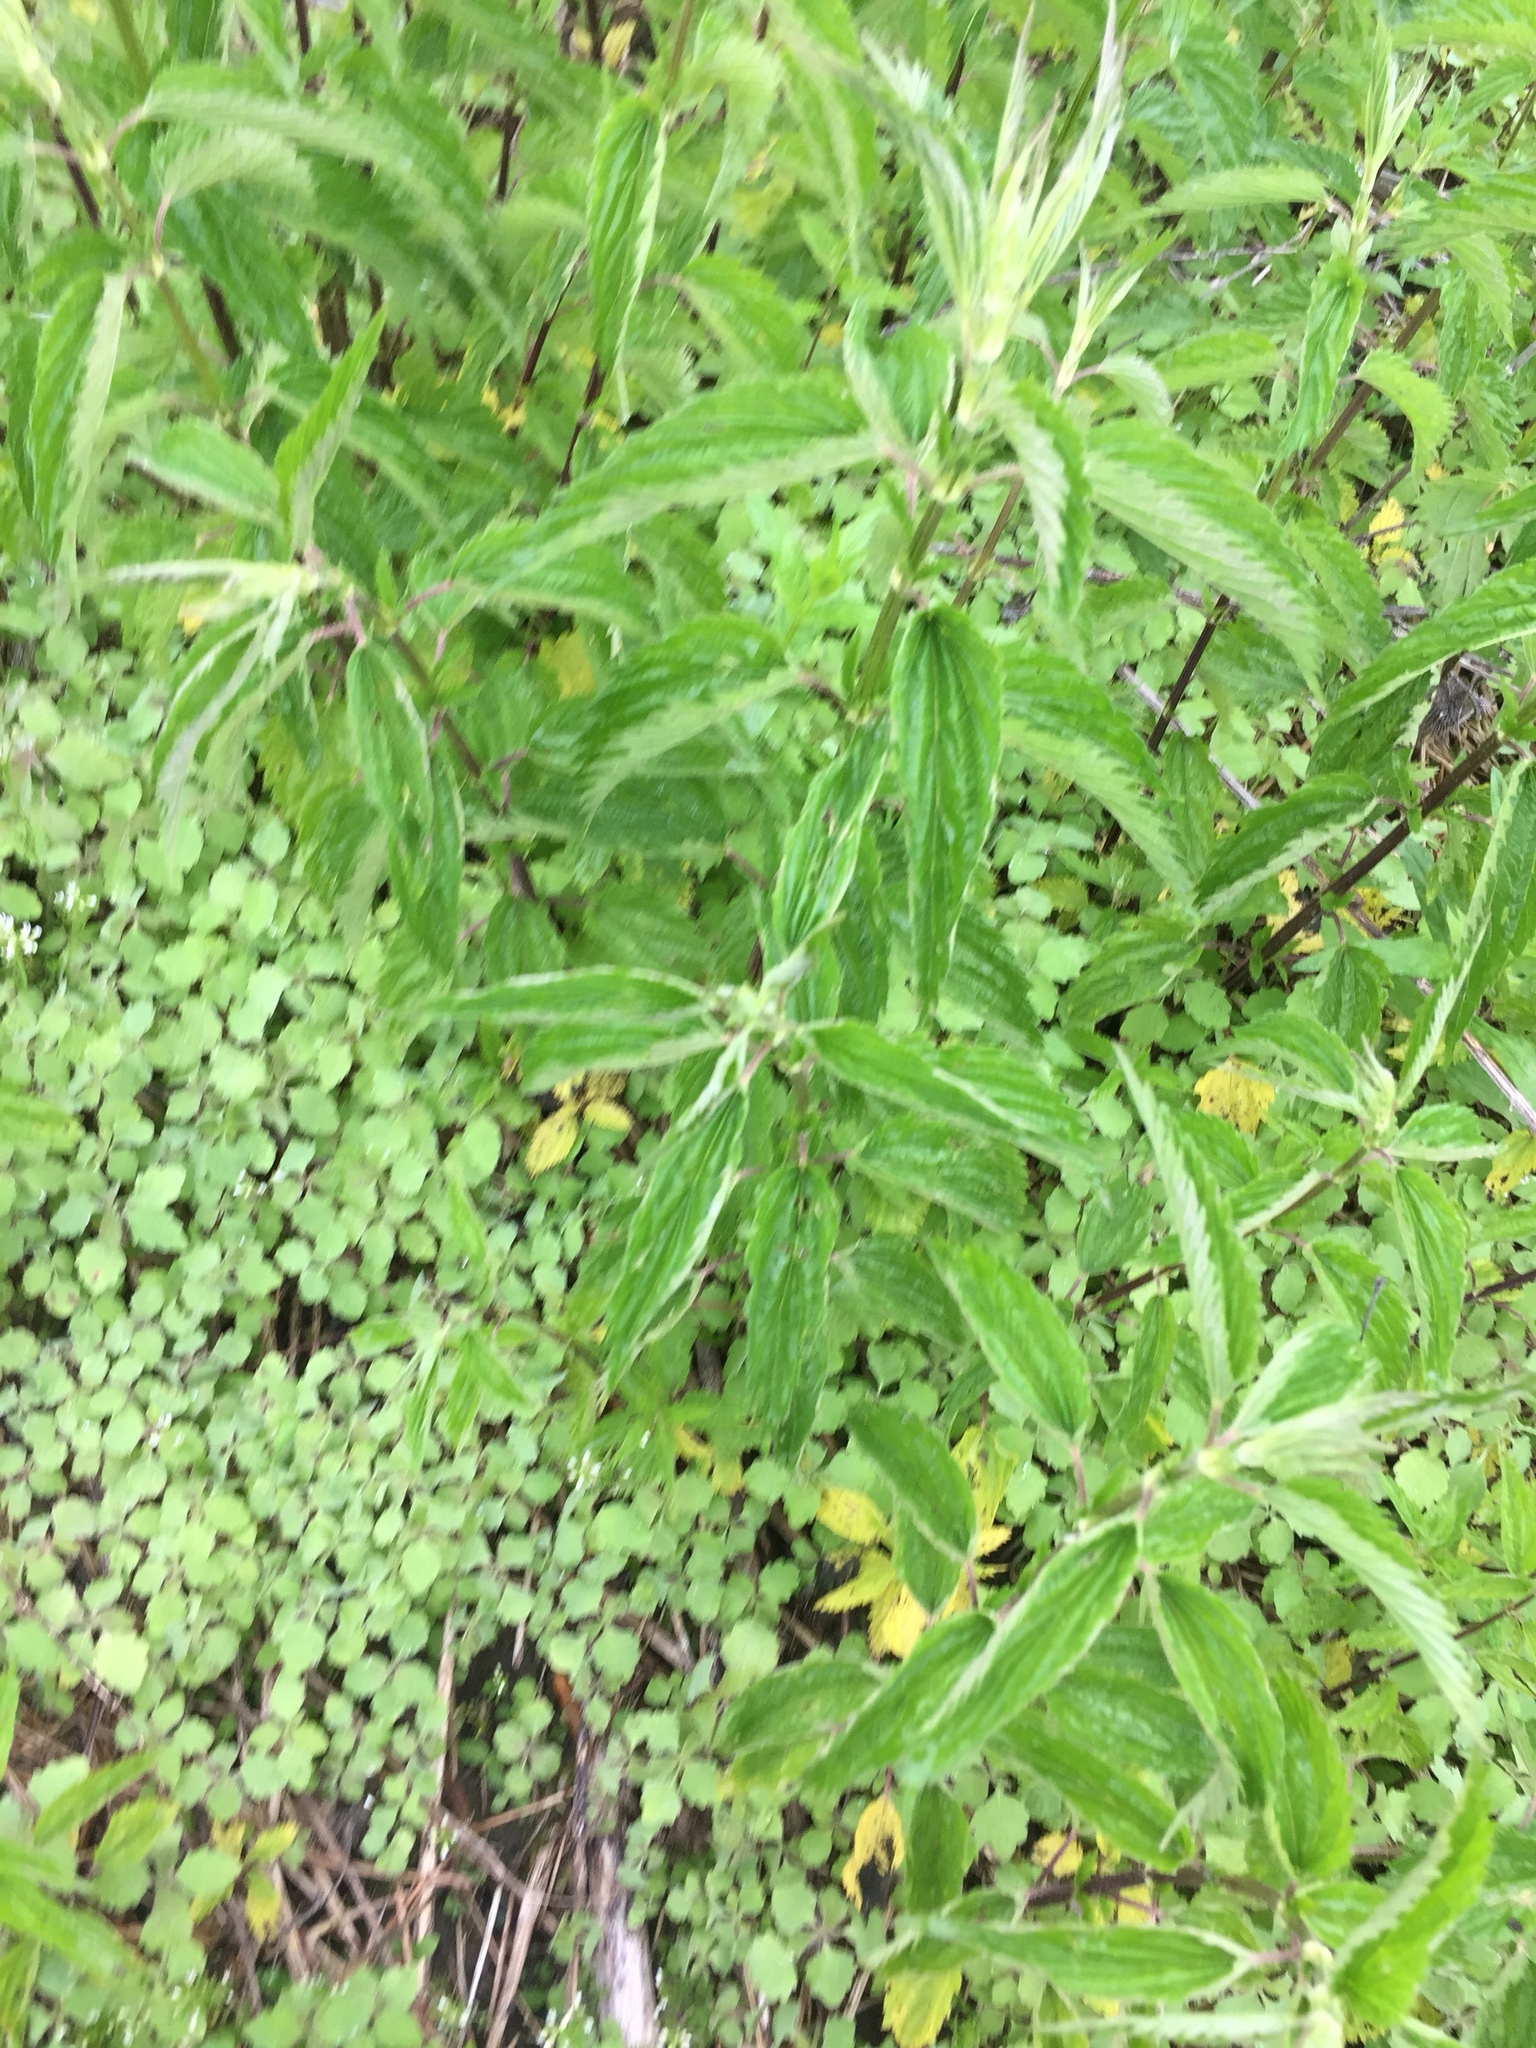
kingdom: Plantae
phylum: Tracheophyta
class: Magnoliopsida
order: Rosales
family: Urticaceae
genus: Urtica
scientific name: Urtica dioica
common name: Common nettle
